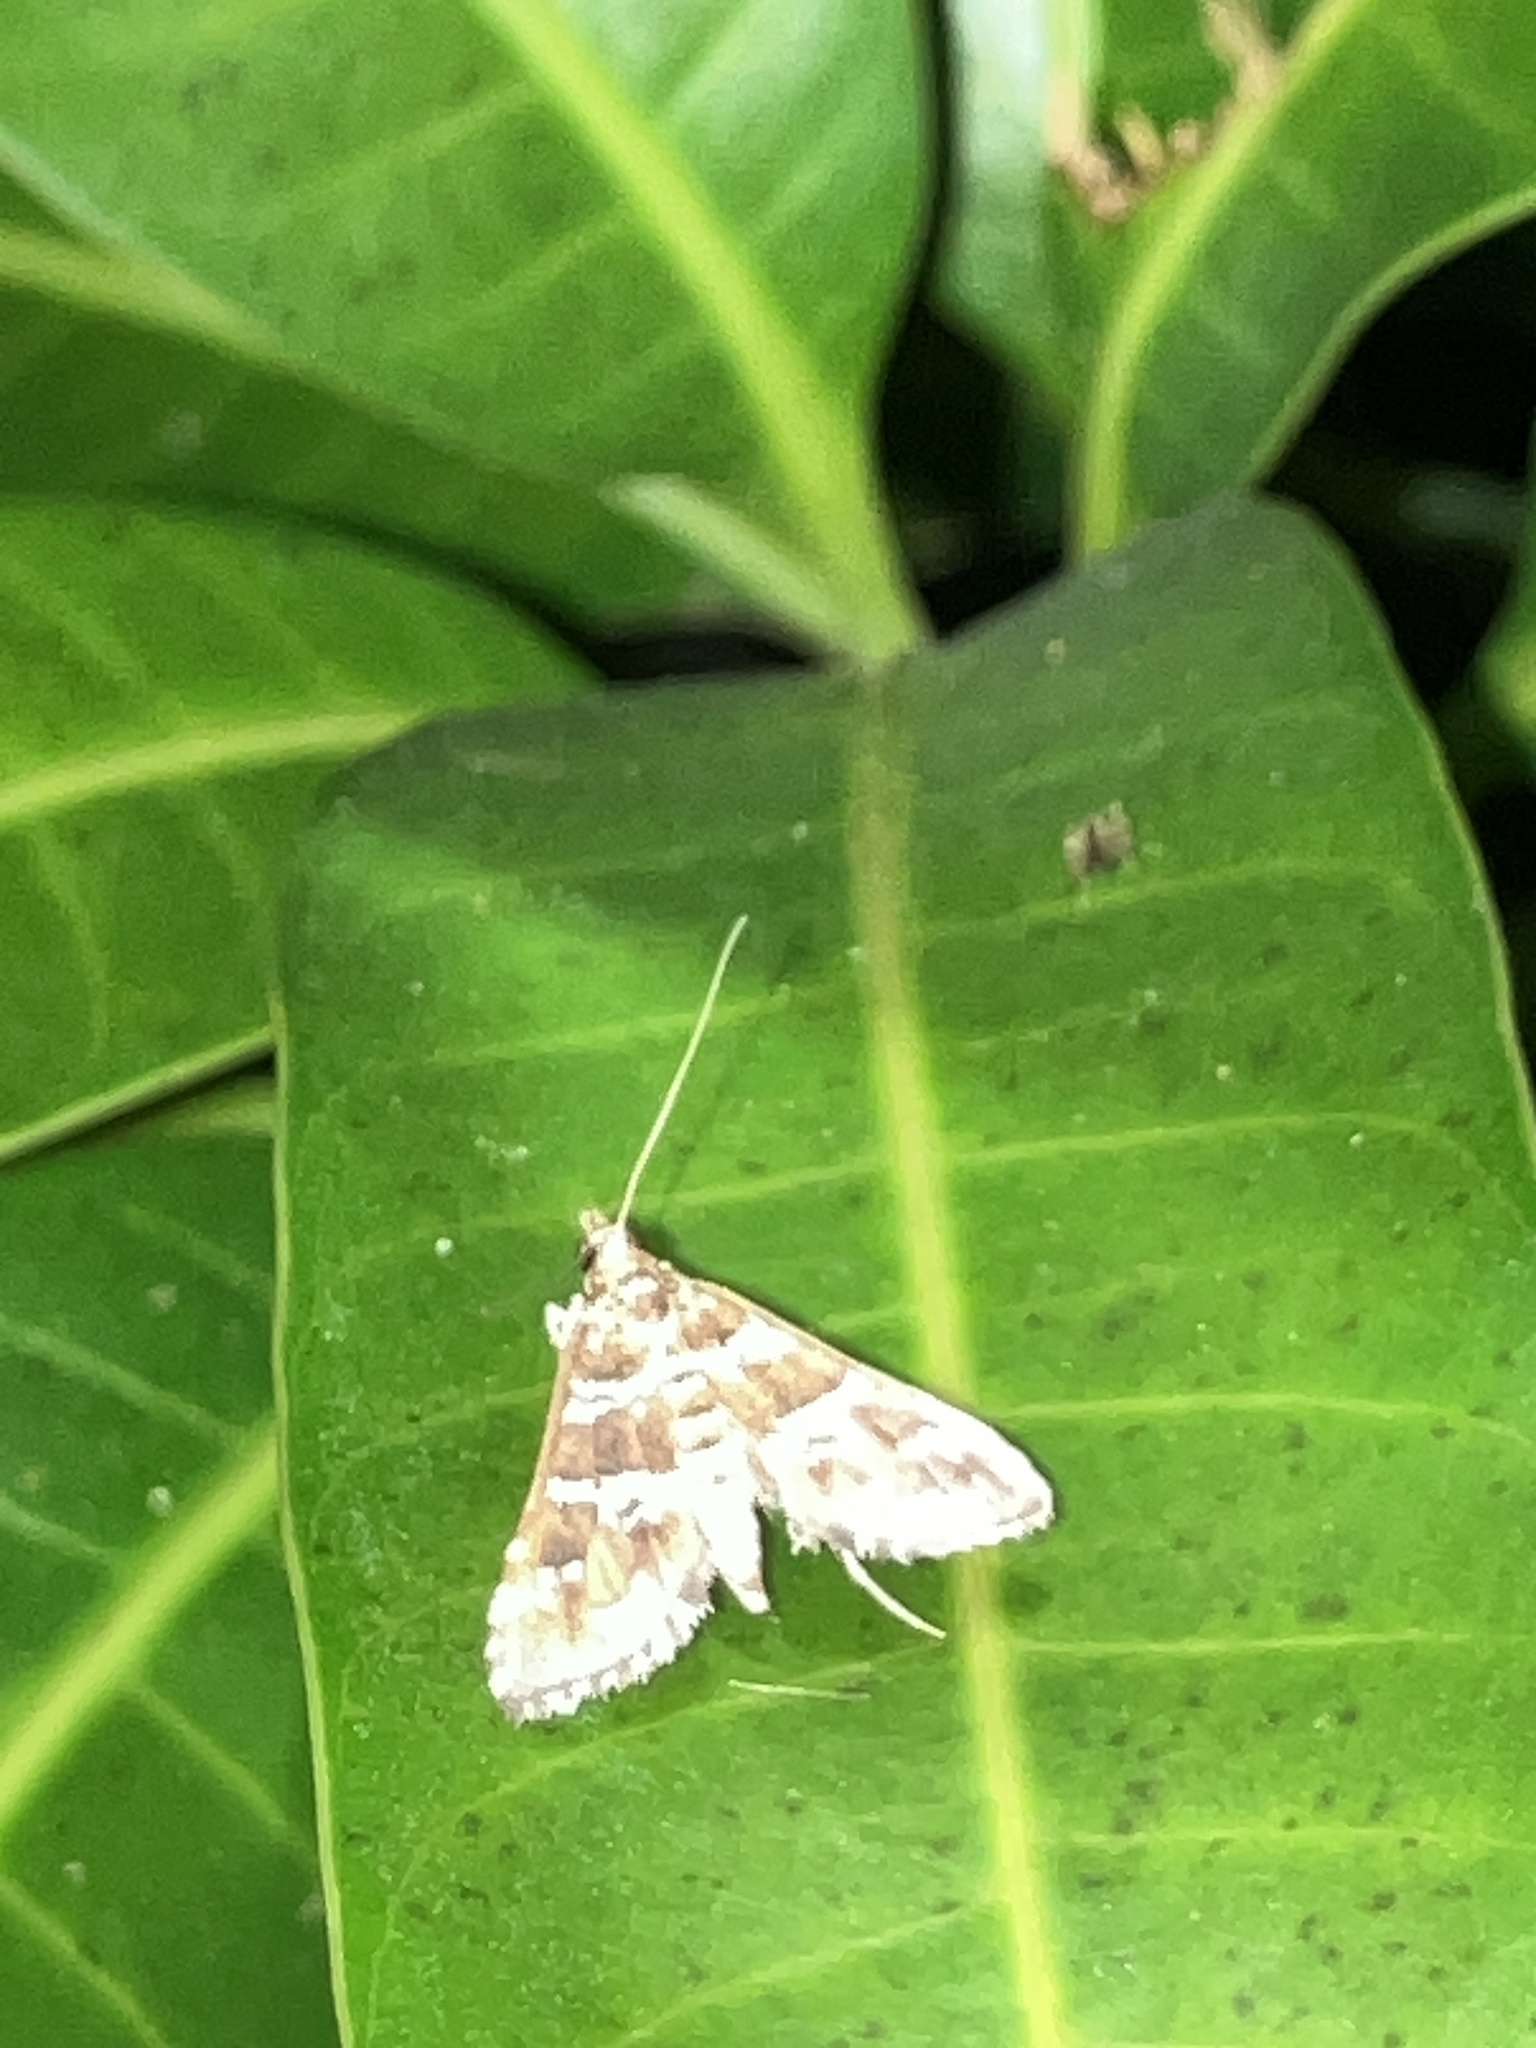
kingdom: Animalia
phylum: Arthropoda
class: Insecta
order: Lepidoptera
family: Crambidae
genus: Samea
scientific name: Samea druchachalis
